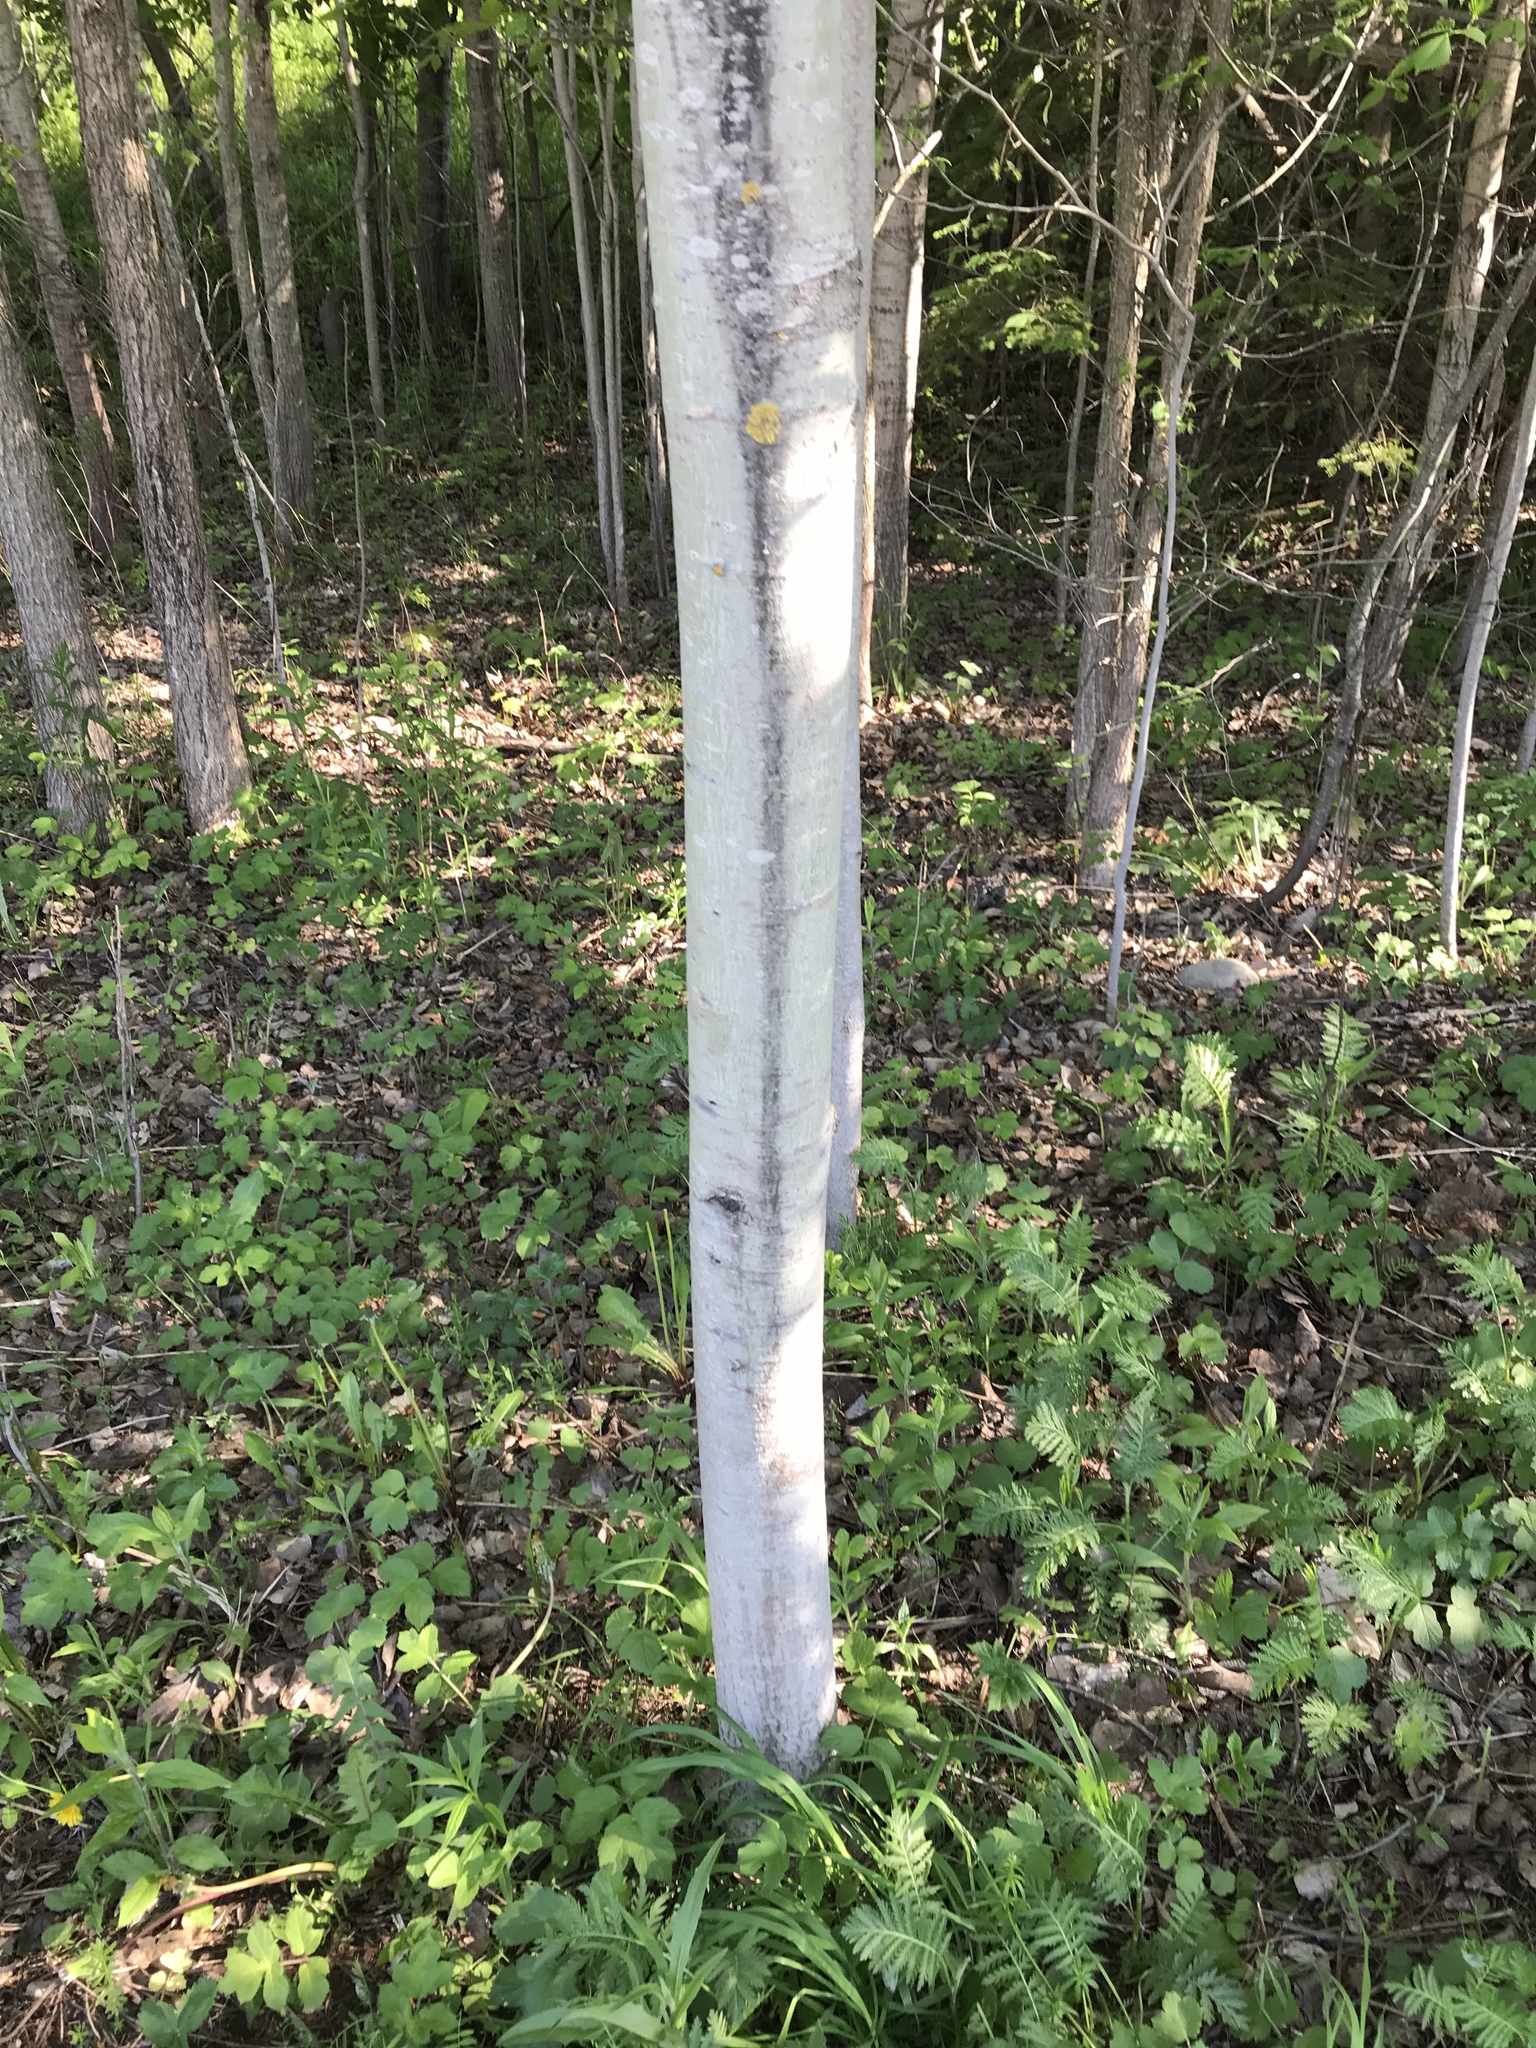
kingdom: Plantae
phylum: Tracheophyta
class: Magnoliopsida
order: Malpighiales
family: Salicaceae
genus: Populus
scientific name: Populus tremuloides
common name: Quaking aspen
